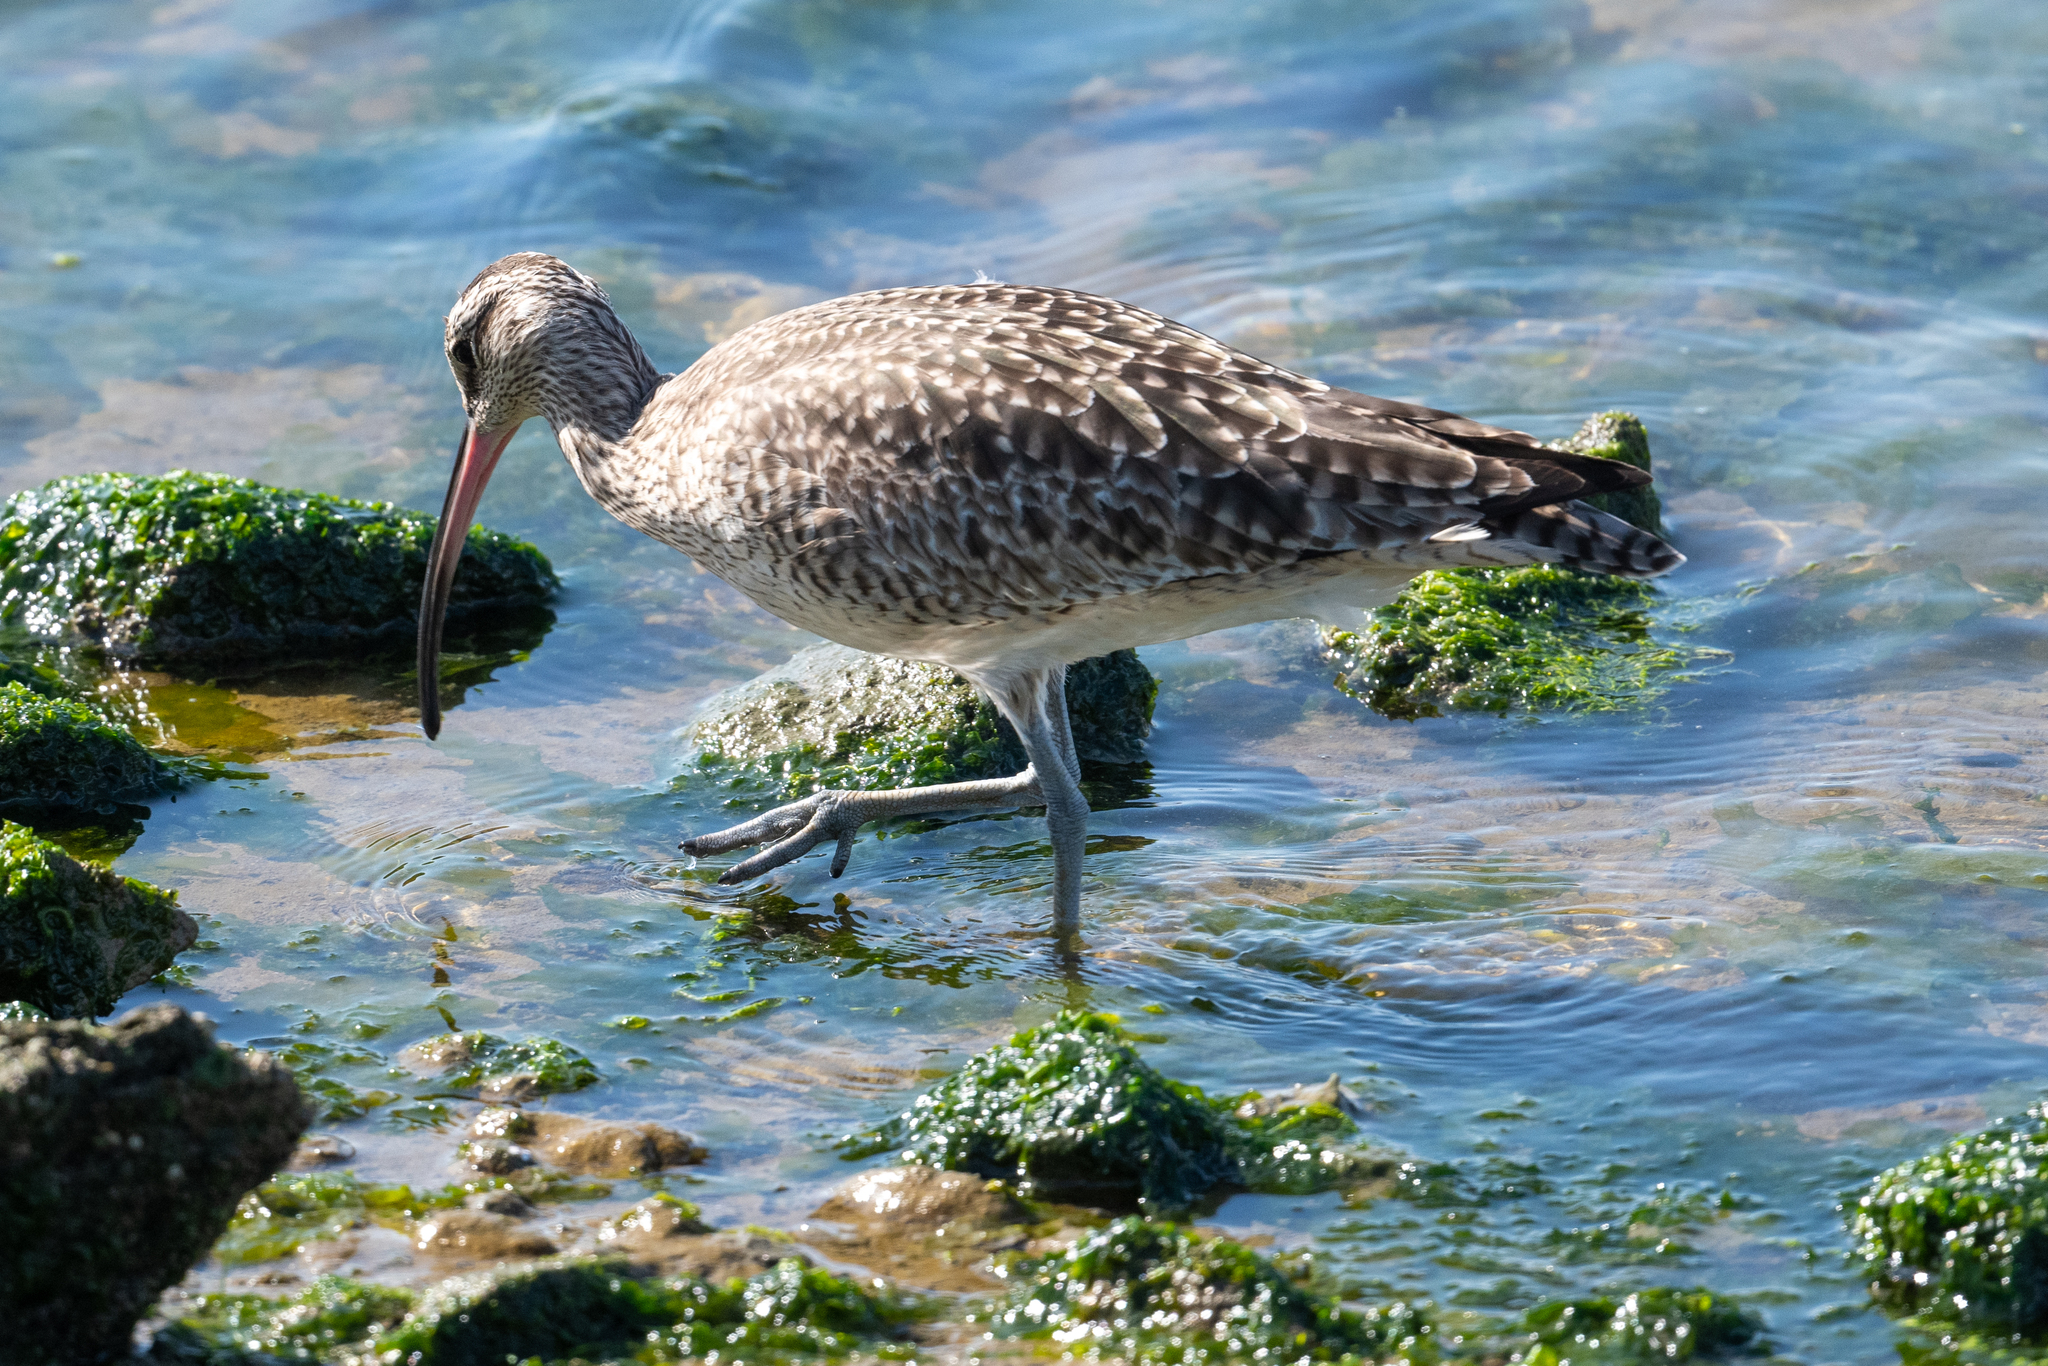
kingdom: Animalia
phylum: Chordata
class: Aves
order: Charadriiformes
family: Scolopacidae
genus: Numenius
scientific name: Numenius phaeopus
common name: Whimbrel
